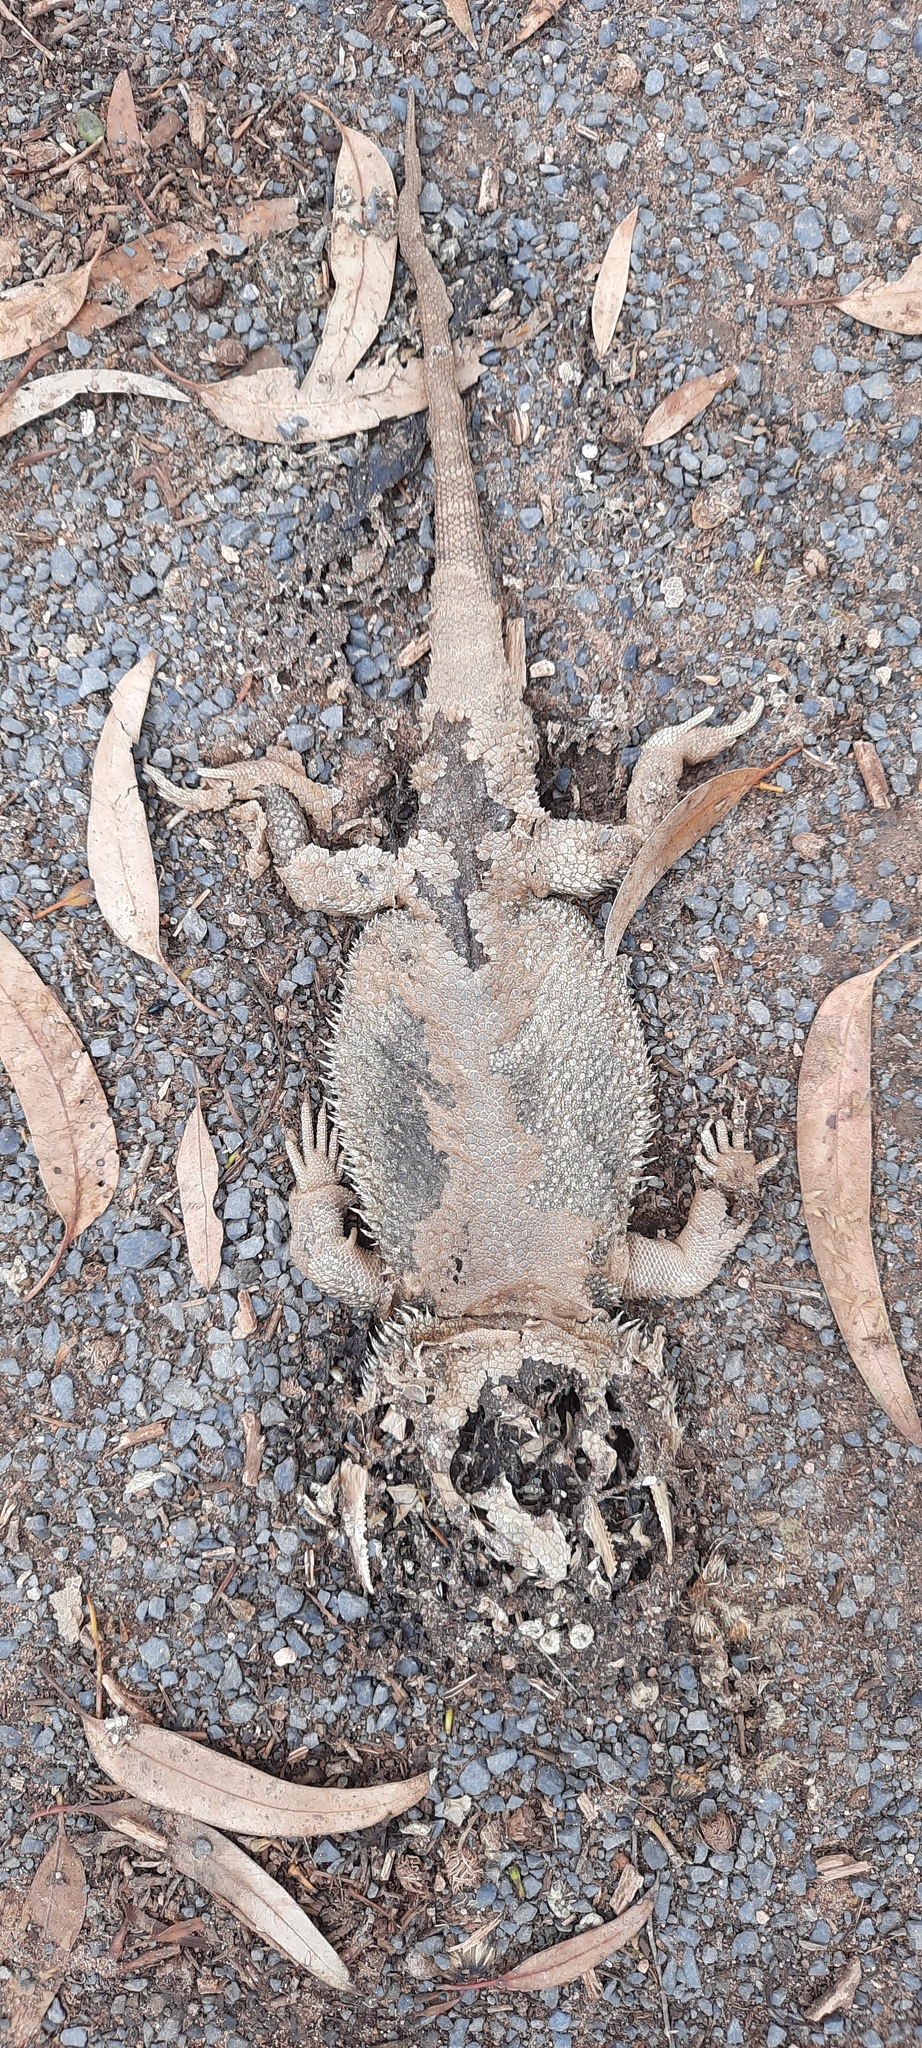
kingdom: Animalia
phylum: Chordata
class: Squamata
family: Agamidae
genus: Pogona
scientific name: Pogona vitticeps
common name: Central bearded dragon
